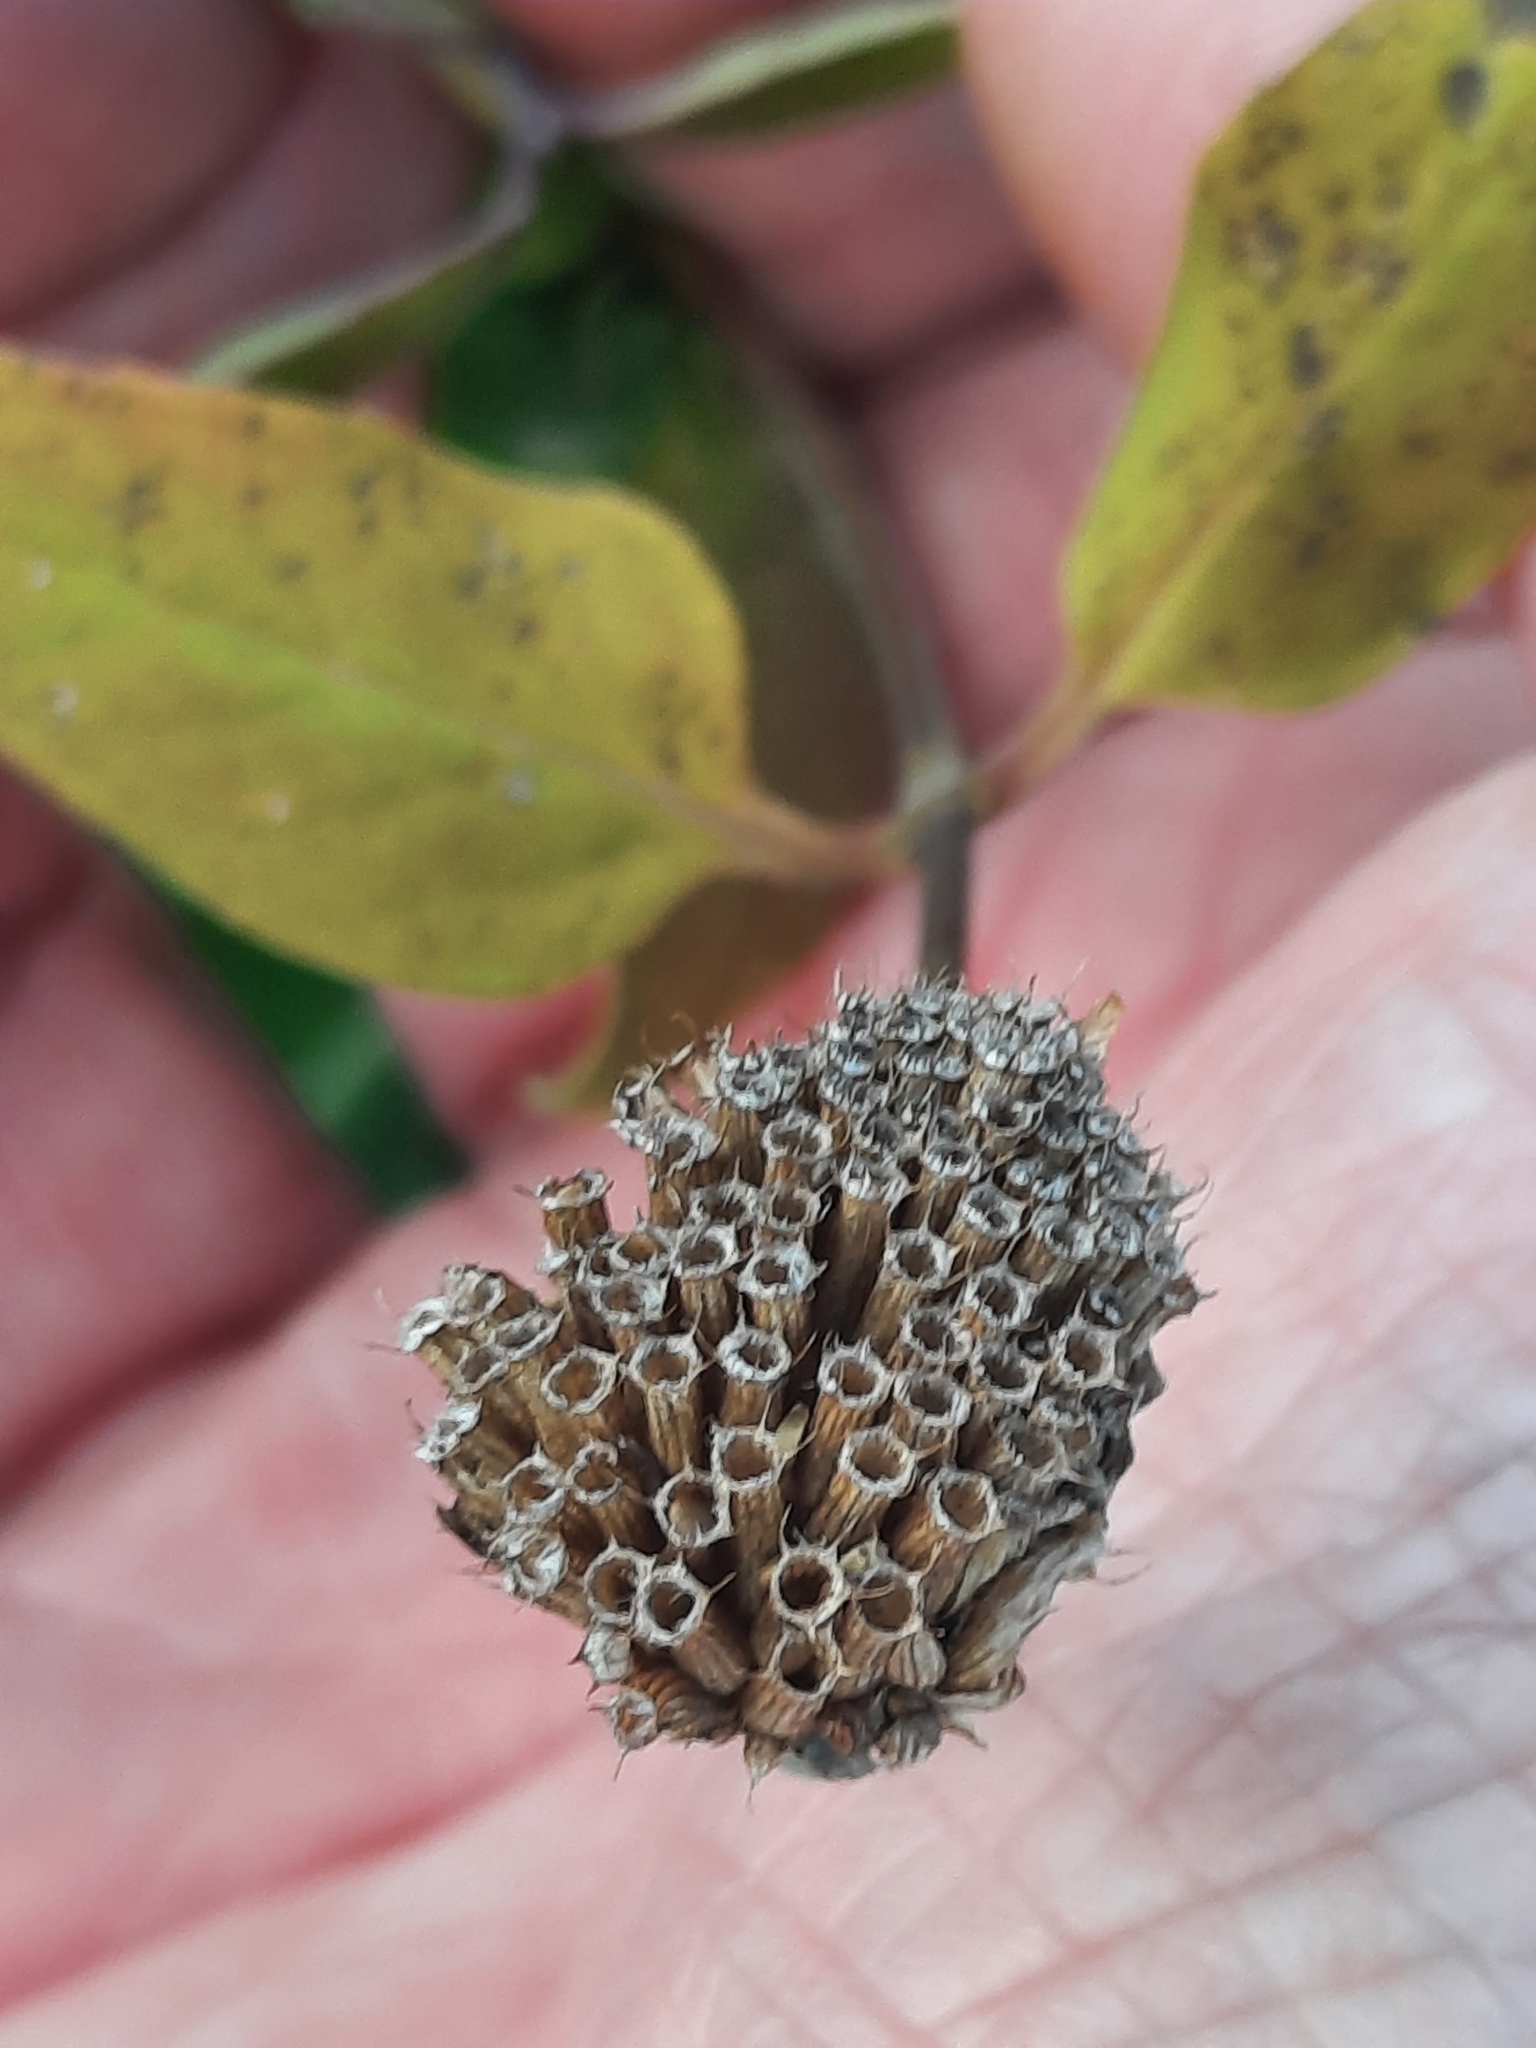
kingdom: Plantae
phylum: Tracheophyta
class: Magnoliopsida
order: Lamiales
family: Lamiaceae
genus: Monarda
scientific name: Monarda fistulosa
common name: Purple beebalm
